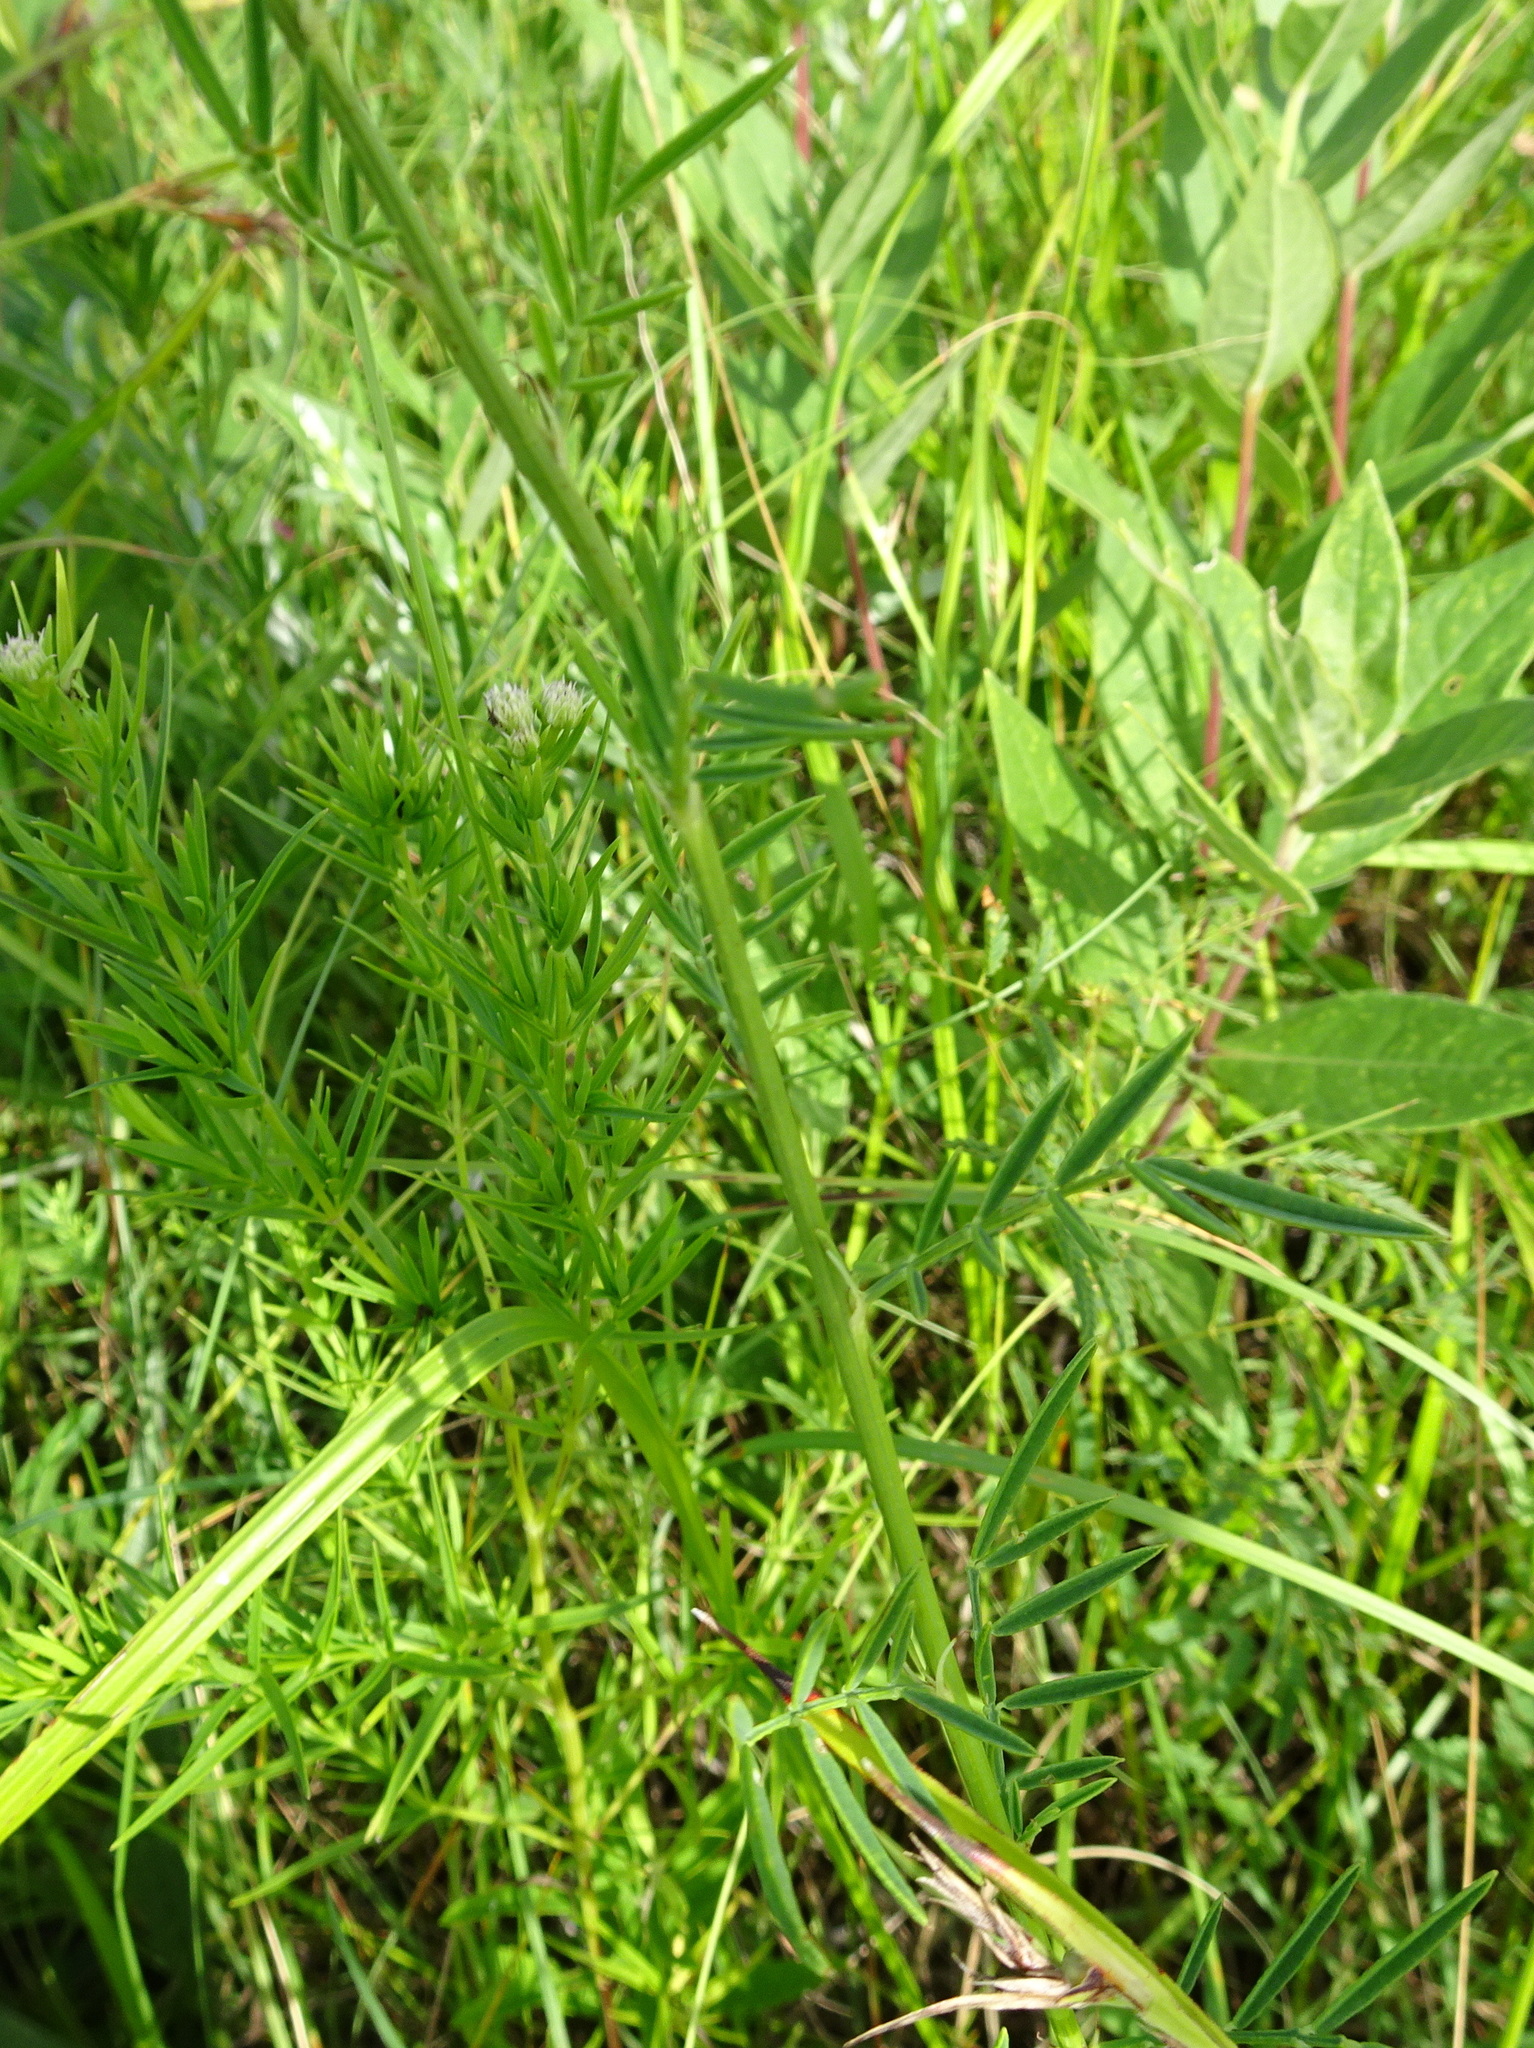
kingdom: Plantae
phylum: Tracheophyta
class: Magnoliopsida
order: Fabales
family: Fabaceae
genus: Dalea
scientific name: Dalea candida
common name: White prairie-clover
